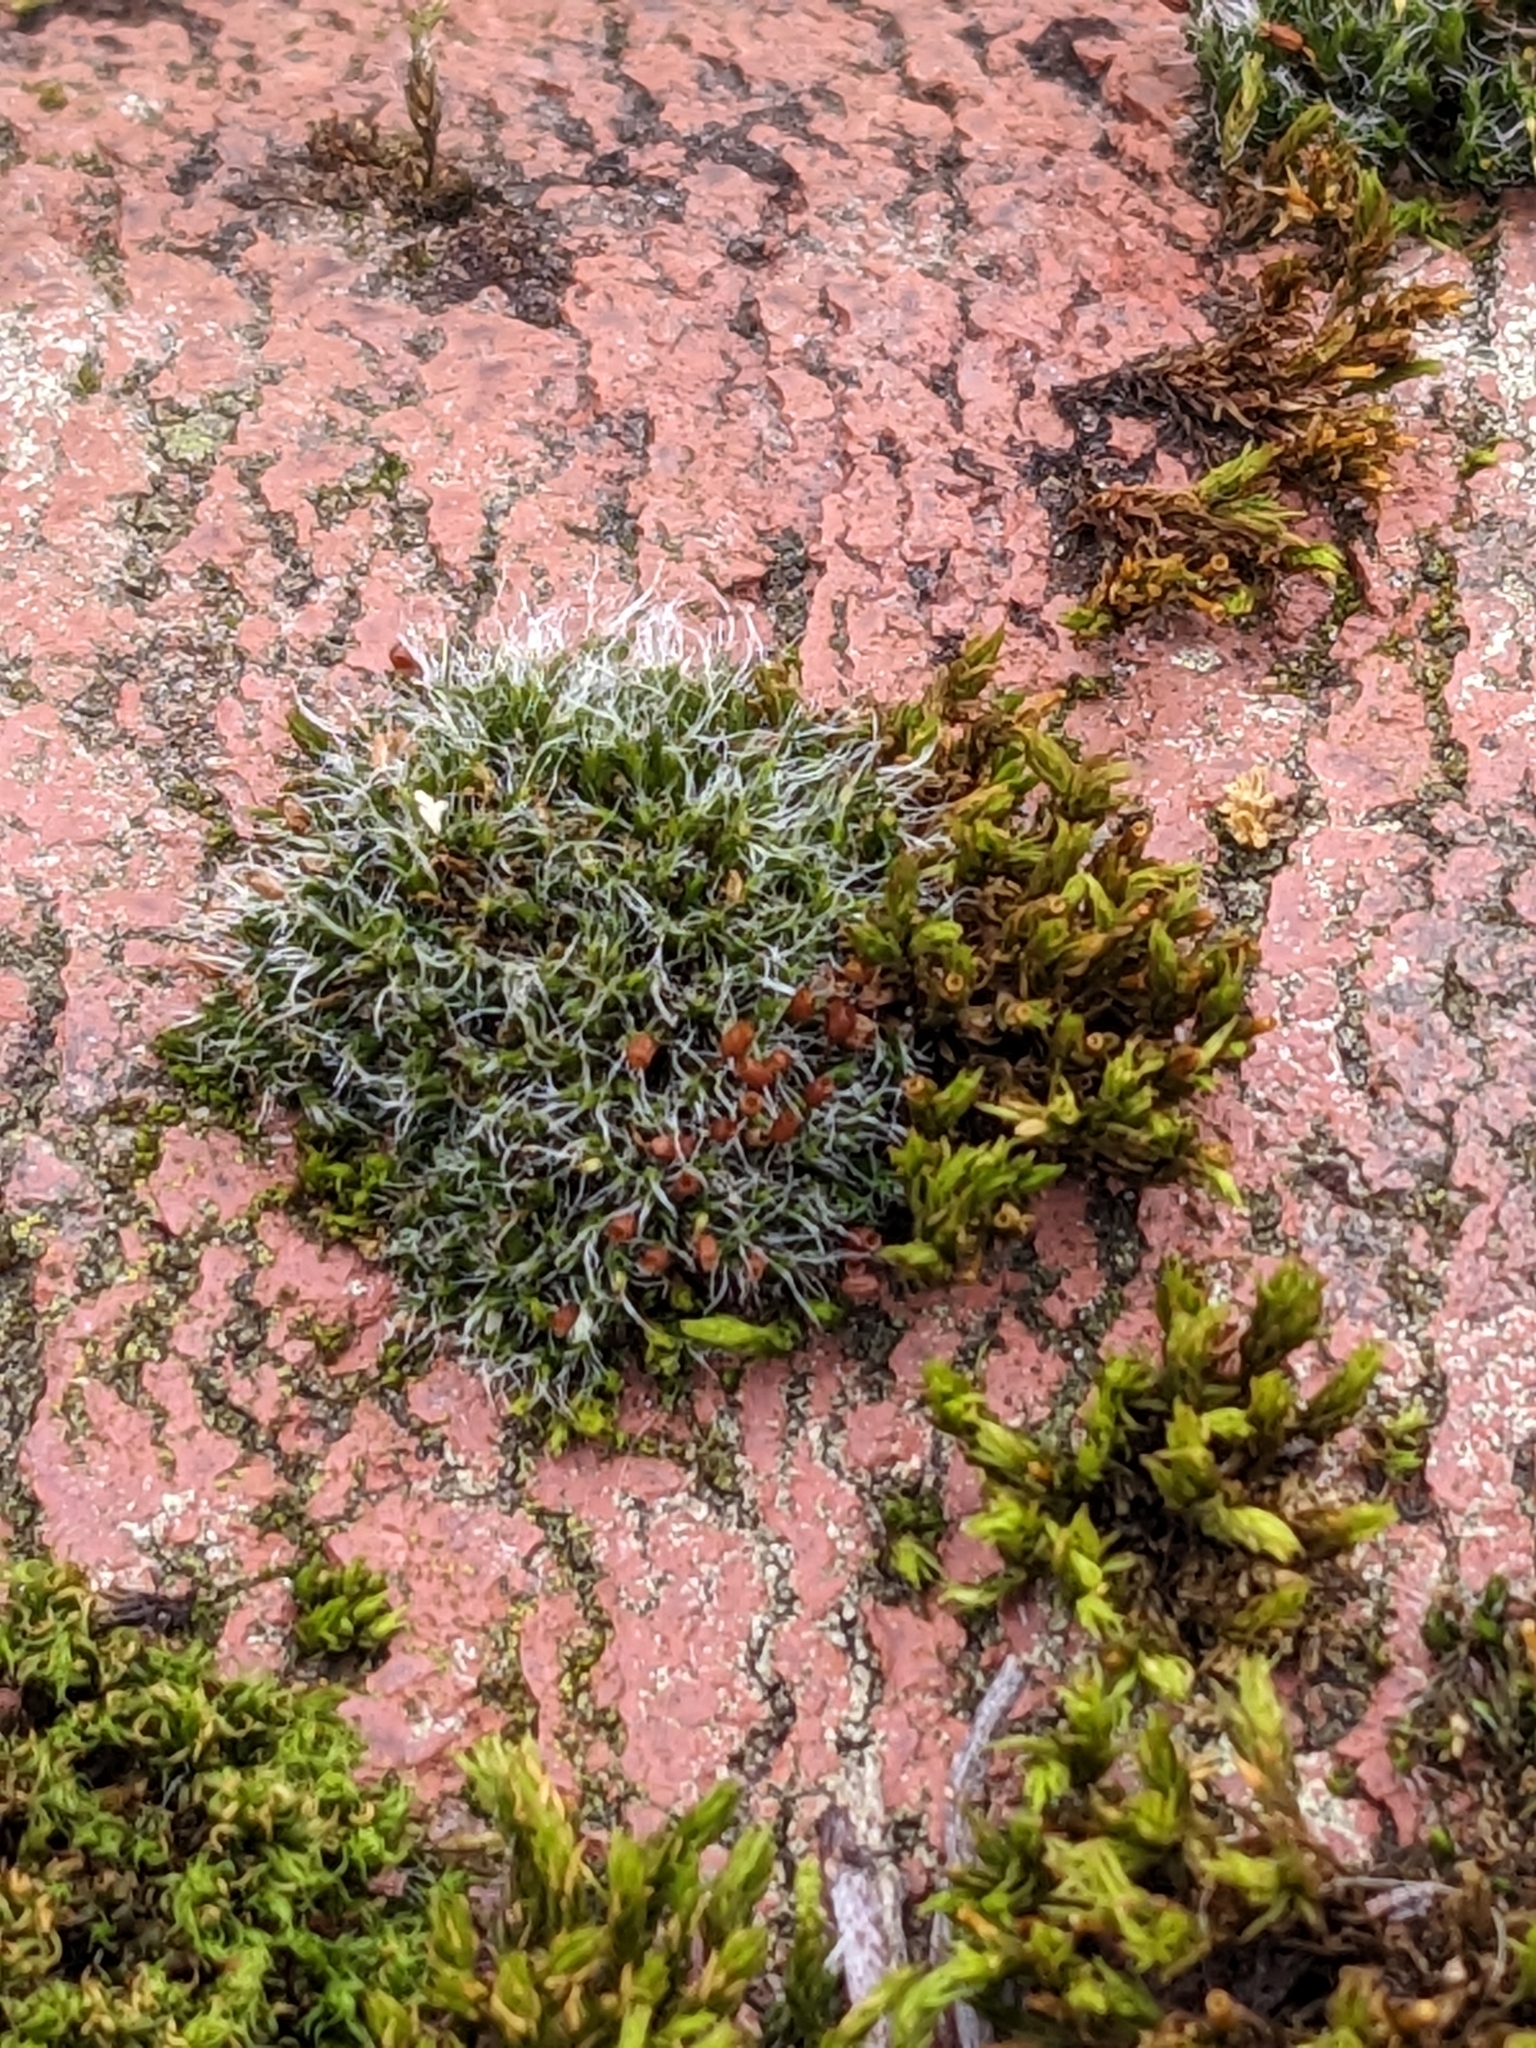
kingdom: Plantae
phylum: Bryophyta
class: Bryopsida
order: Grimmiales
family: Grimmiaceae
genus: Grimmia
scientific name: Grimmia pulvinata
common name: Grey-cushioned grimmia
